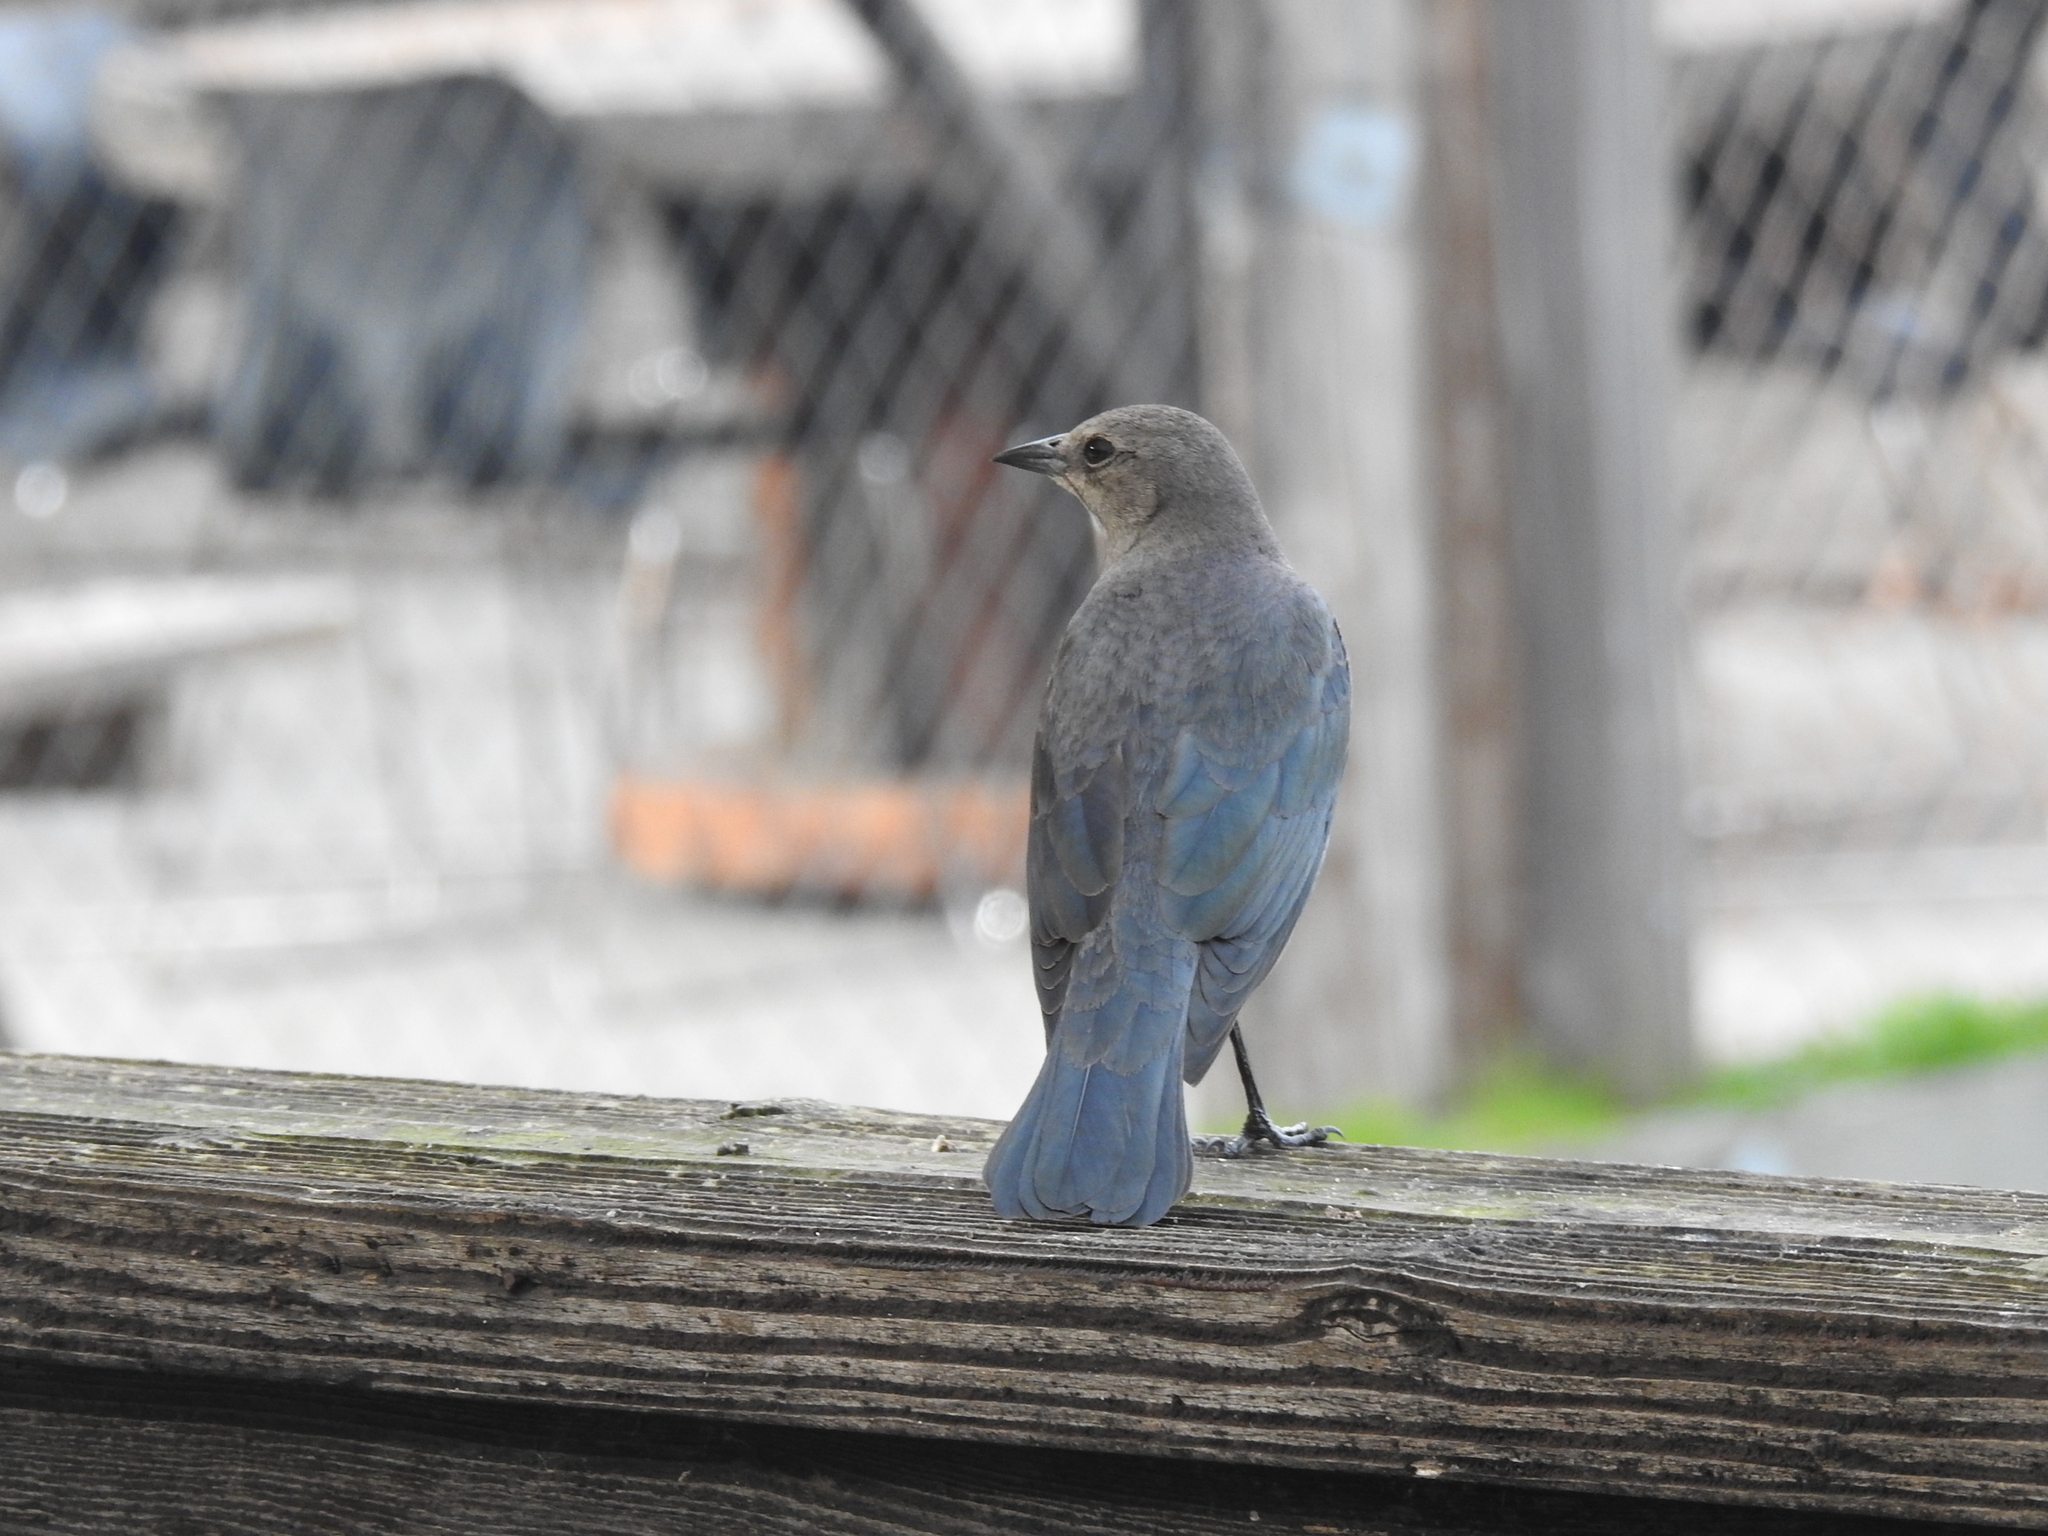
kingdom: Animalia
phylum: Chordata
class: Aves
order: Passeriformes
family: Icteridae
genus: Euphagus
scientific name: Euphagus cyanocephalus
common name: Brewer's blackbird
